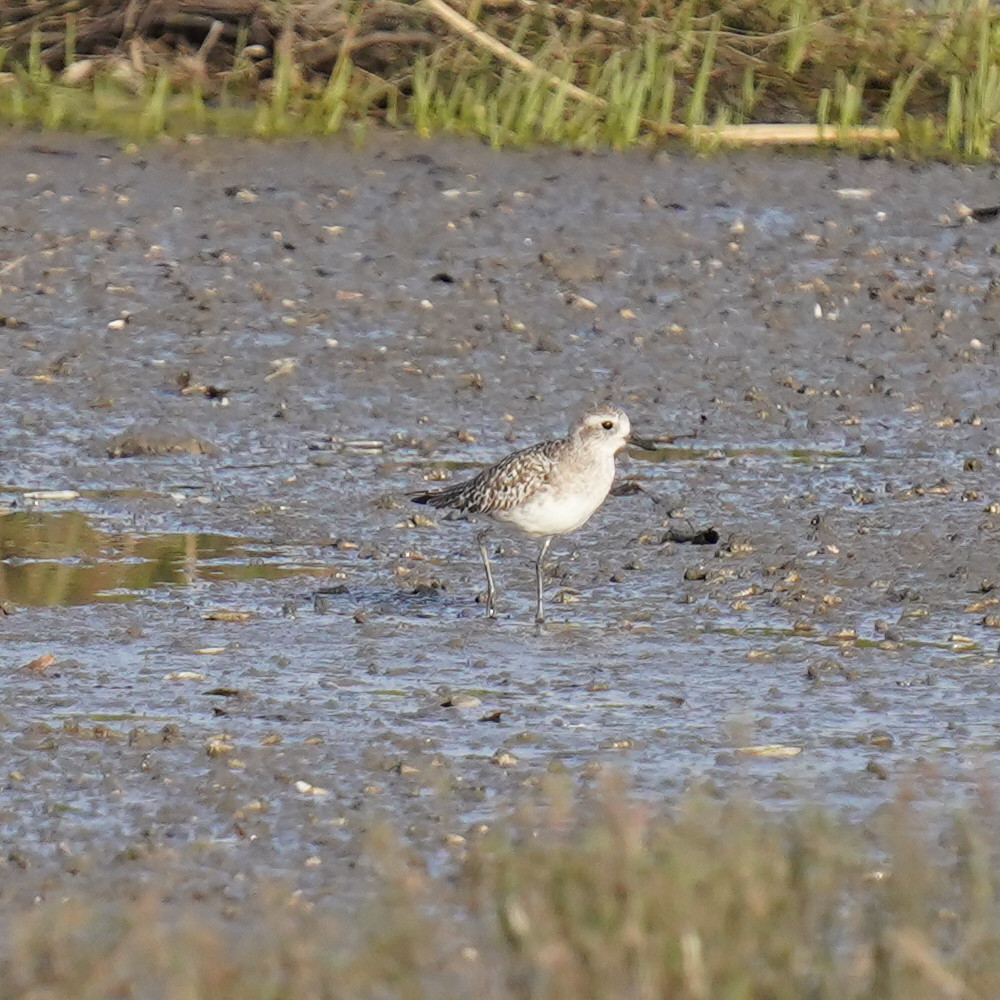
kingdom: Animalia
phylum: Chordata
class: Aves
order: Charadriiformes
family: Charadriidae
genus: Pluvialis
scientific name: Pluvialis squatarola
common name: Grey plover
